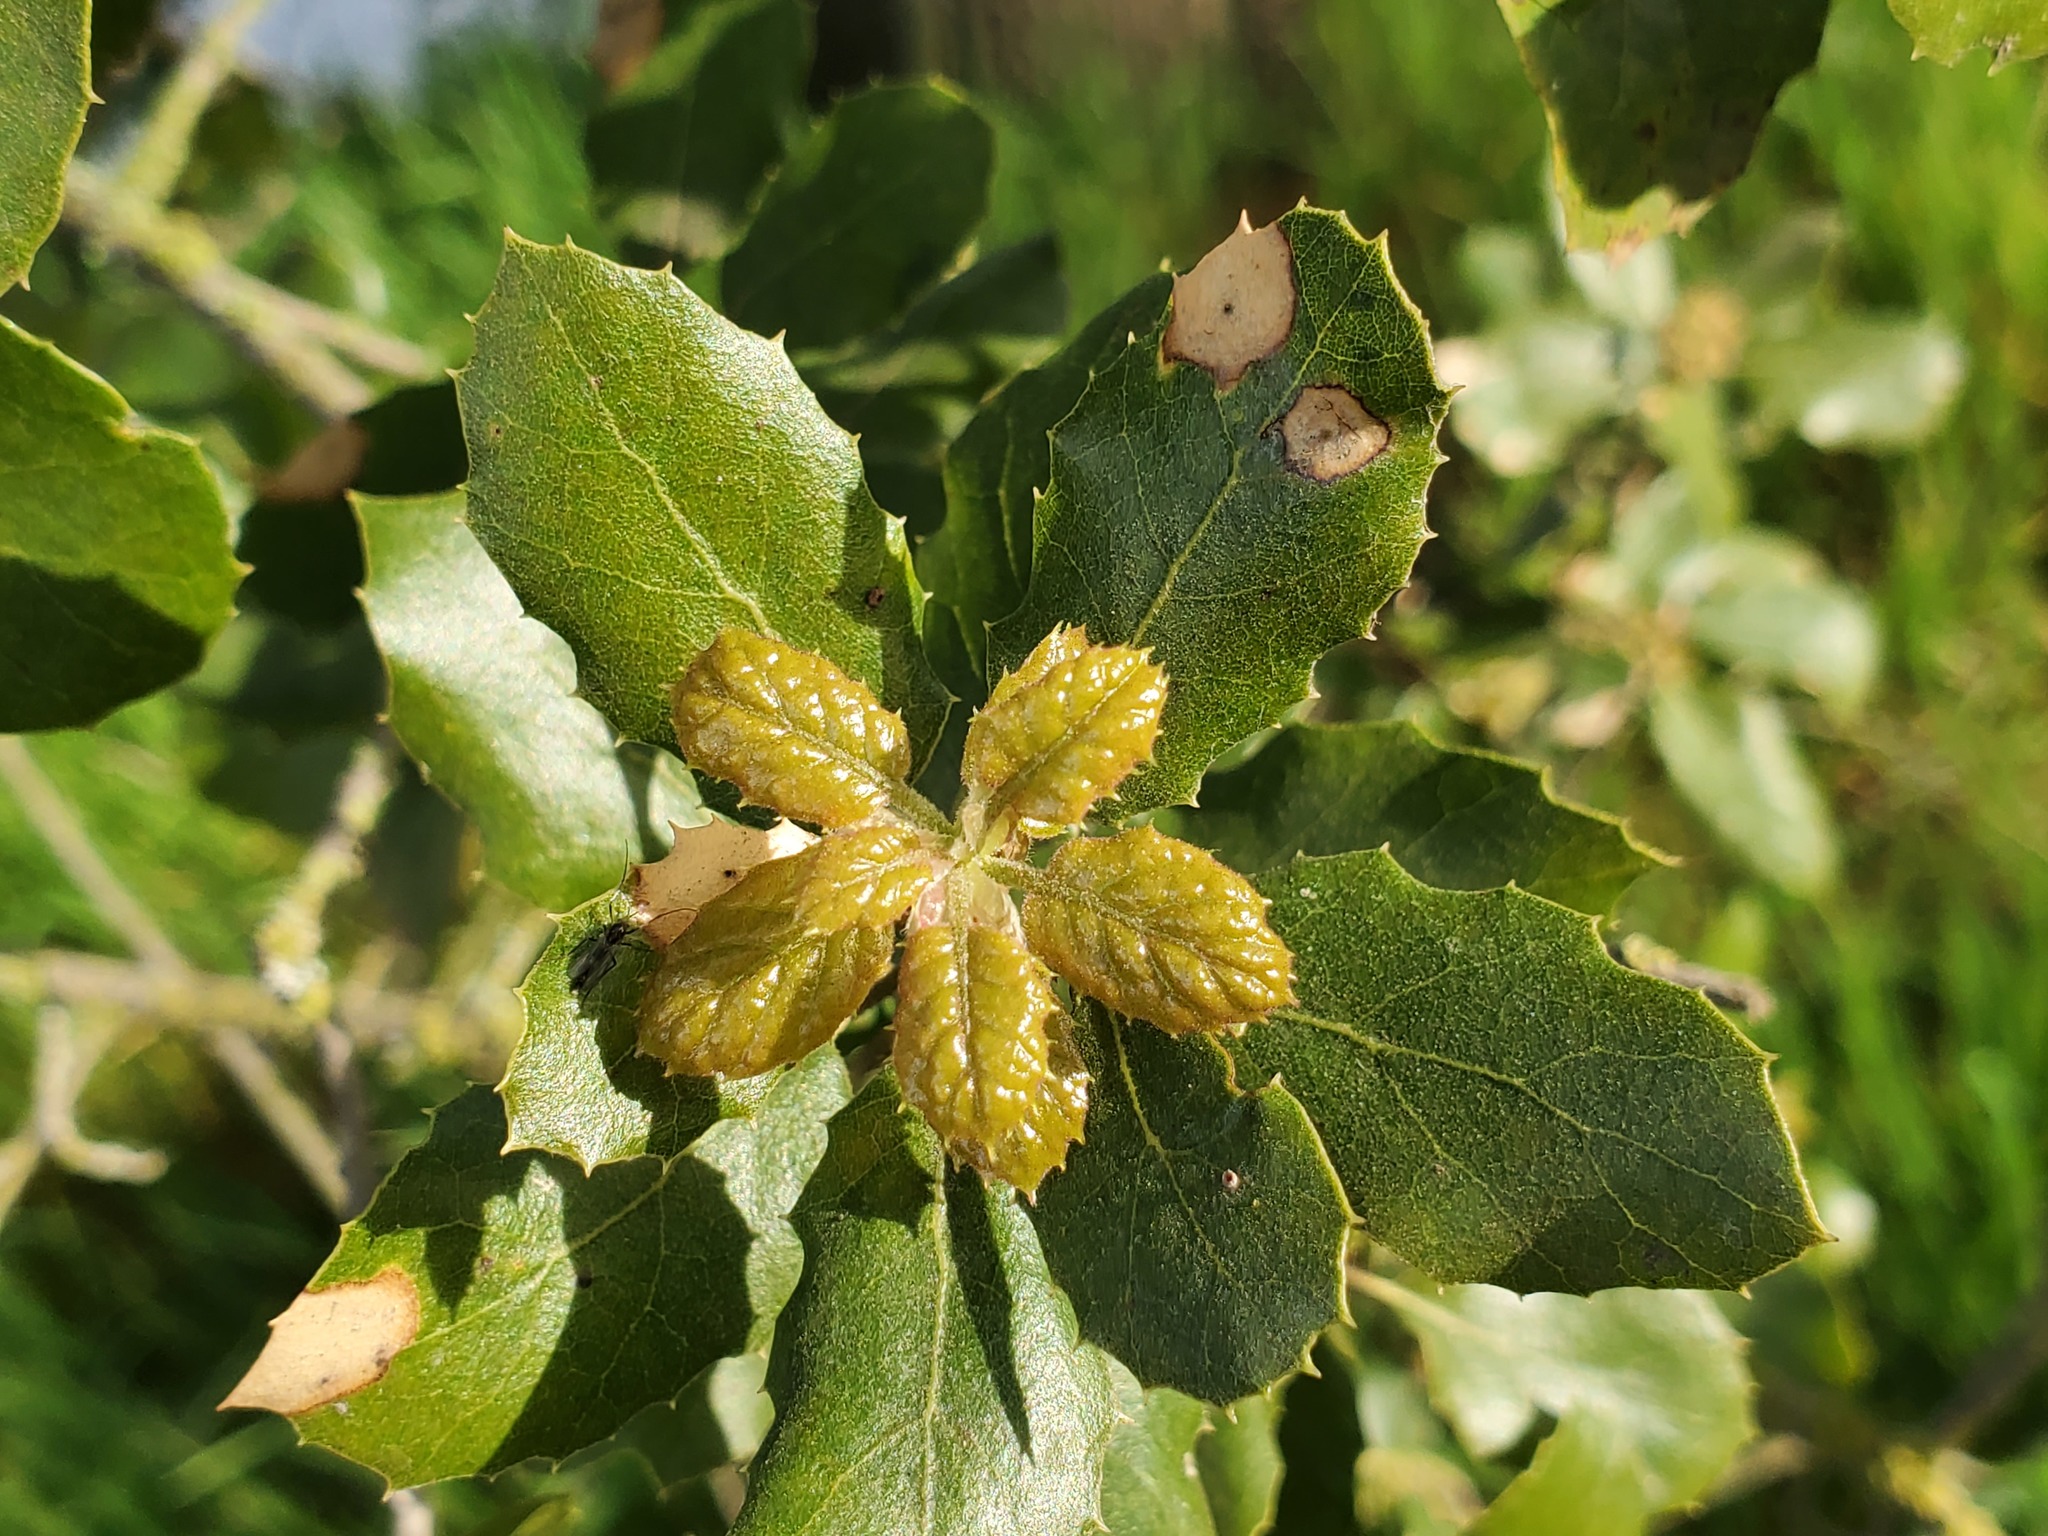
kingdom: Plantae
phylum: Tracheophyta
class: Magnoliopsida
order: Fagales
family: Fagaceae
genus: Quercus
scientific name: Quercus agrifolia
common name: California live oak
